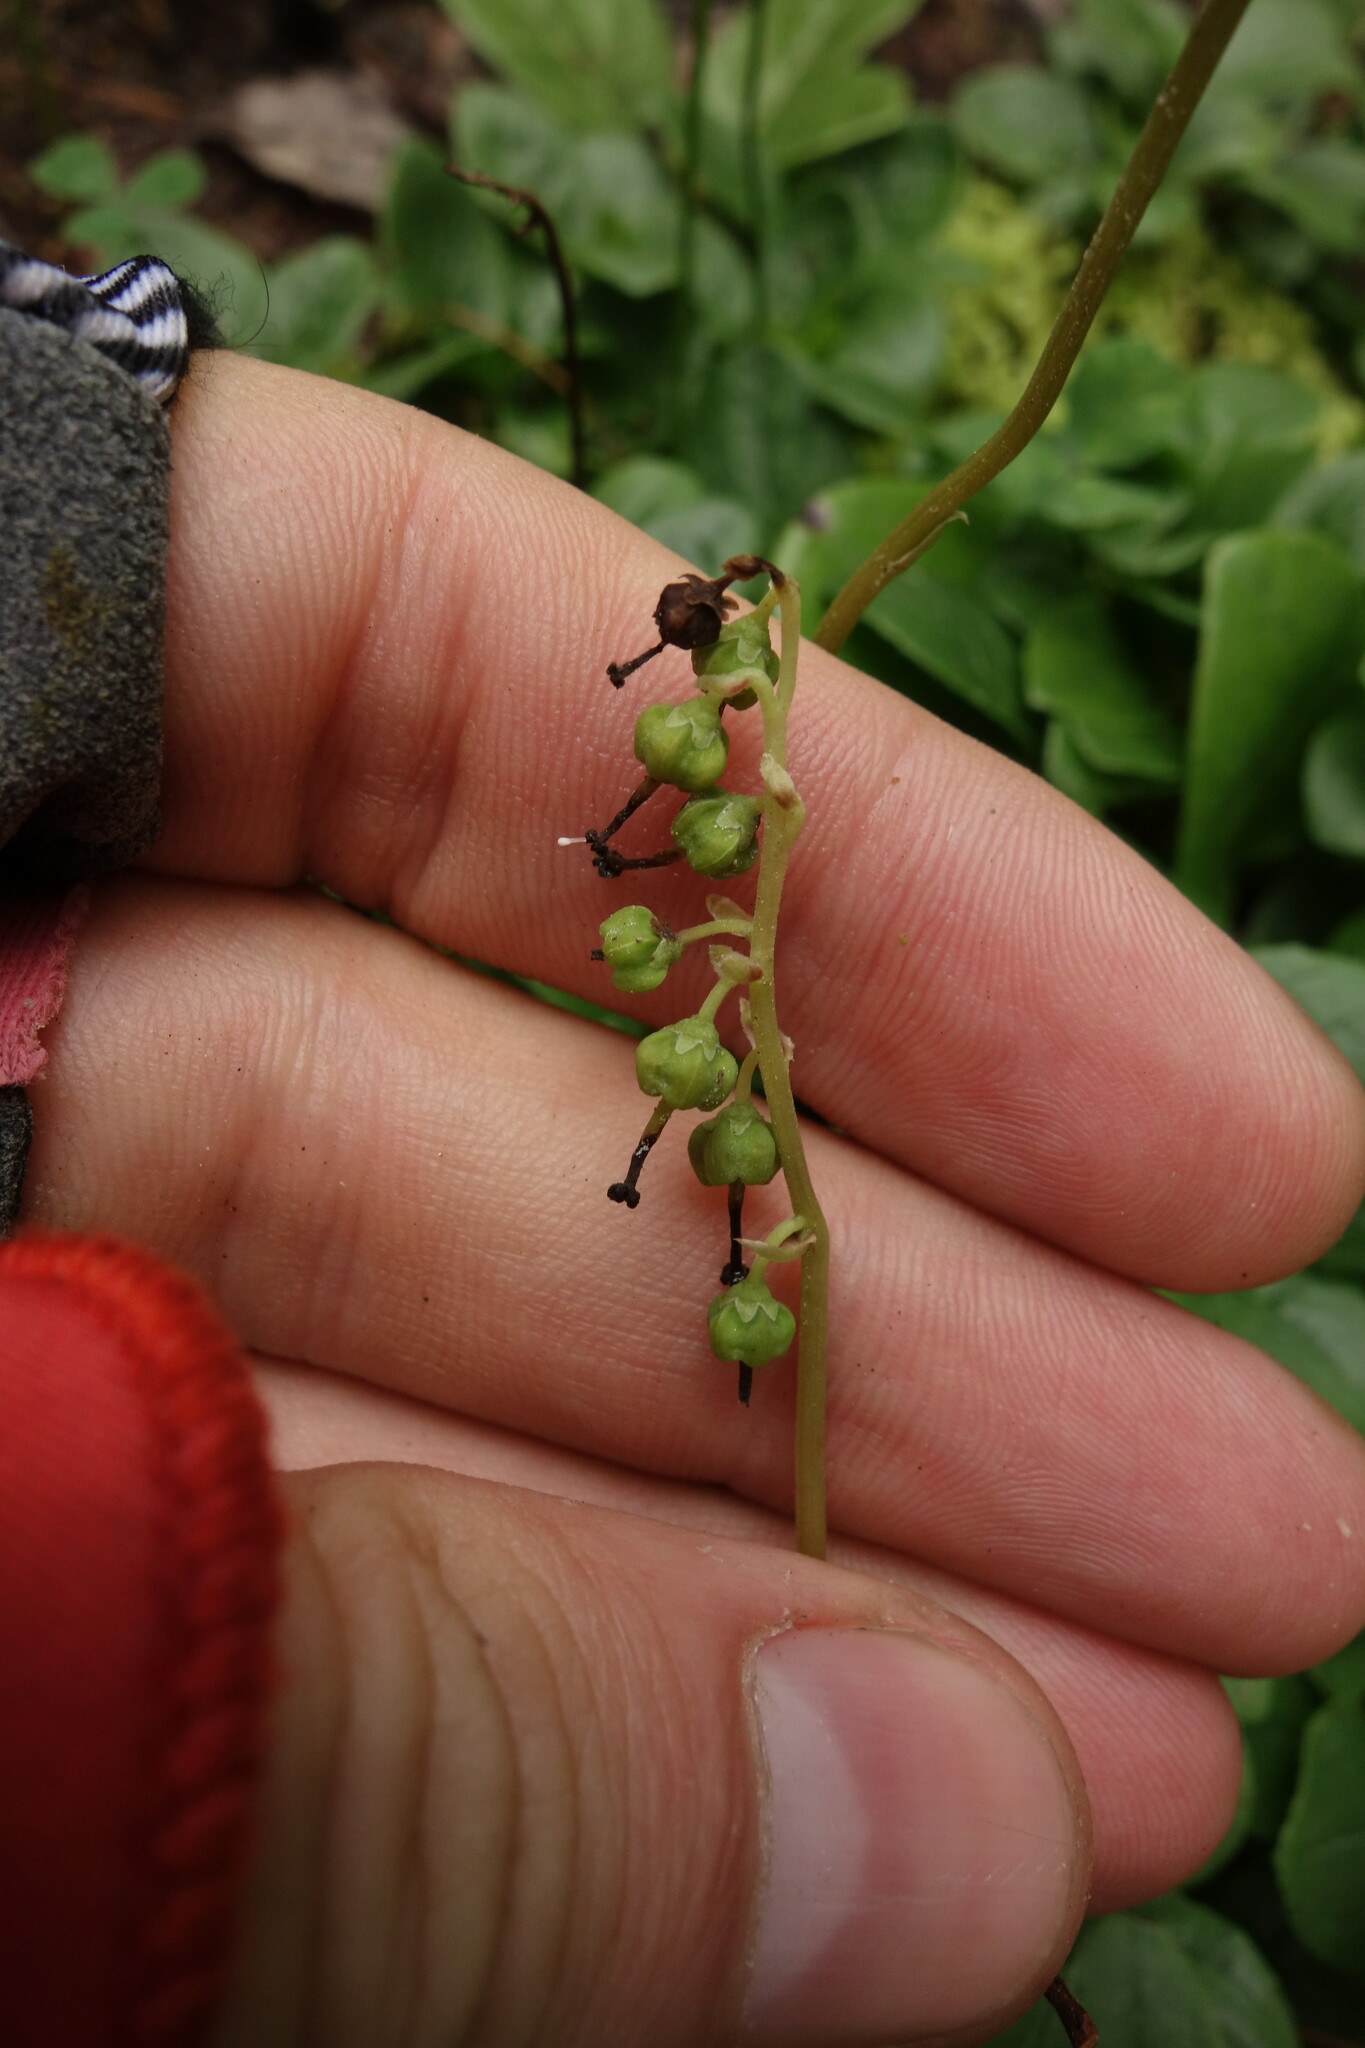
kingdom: Plantae
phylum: Tracheophyta
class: Magnoliopsida
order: Ericales
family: Ericaceae
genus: Orthilia
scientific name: Orthilia secunda
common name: One-sided orthilia
